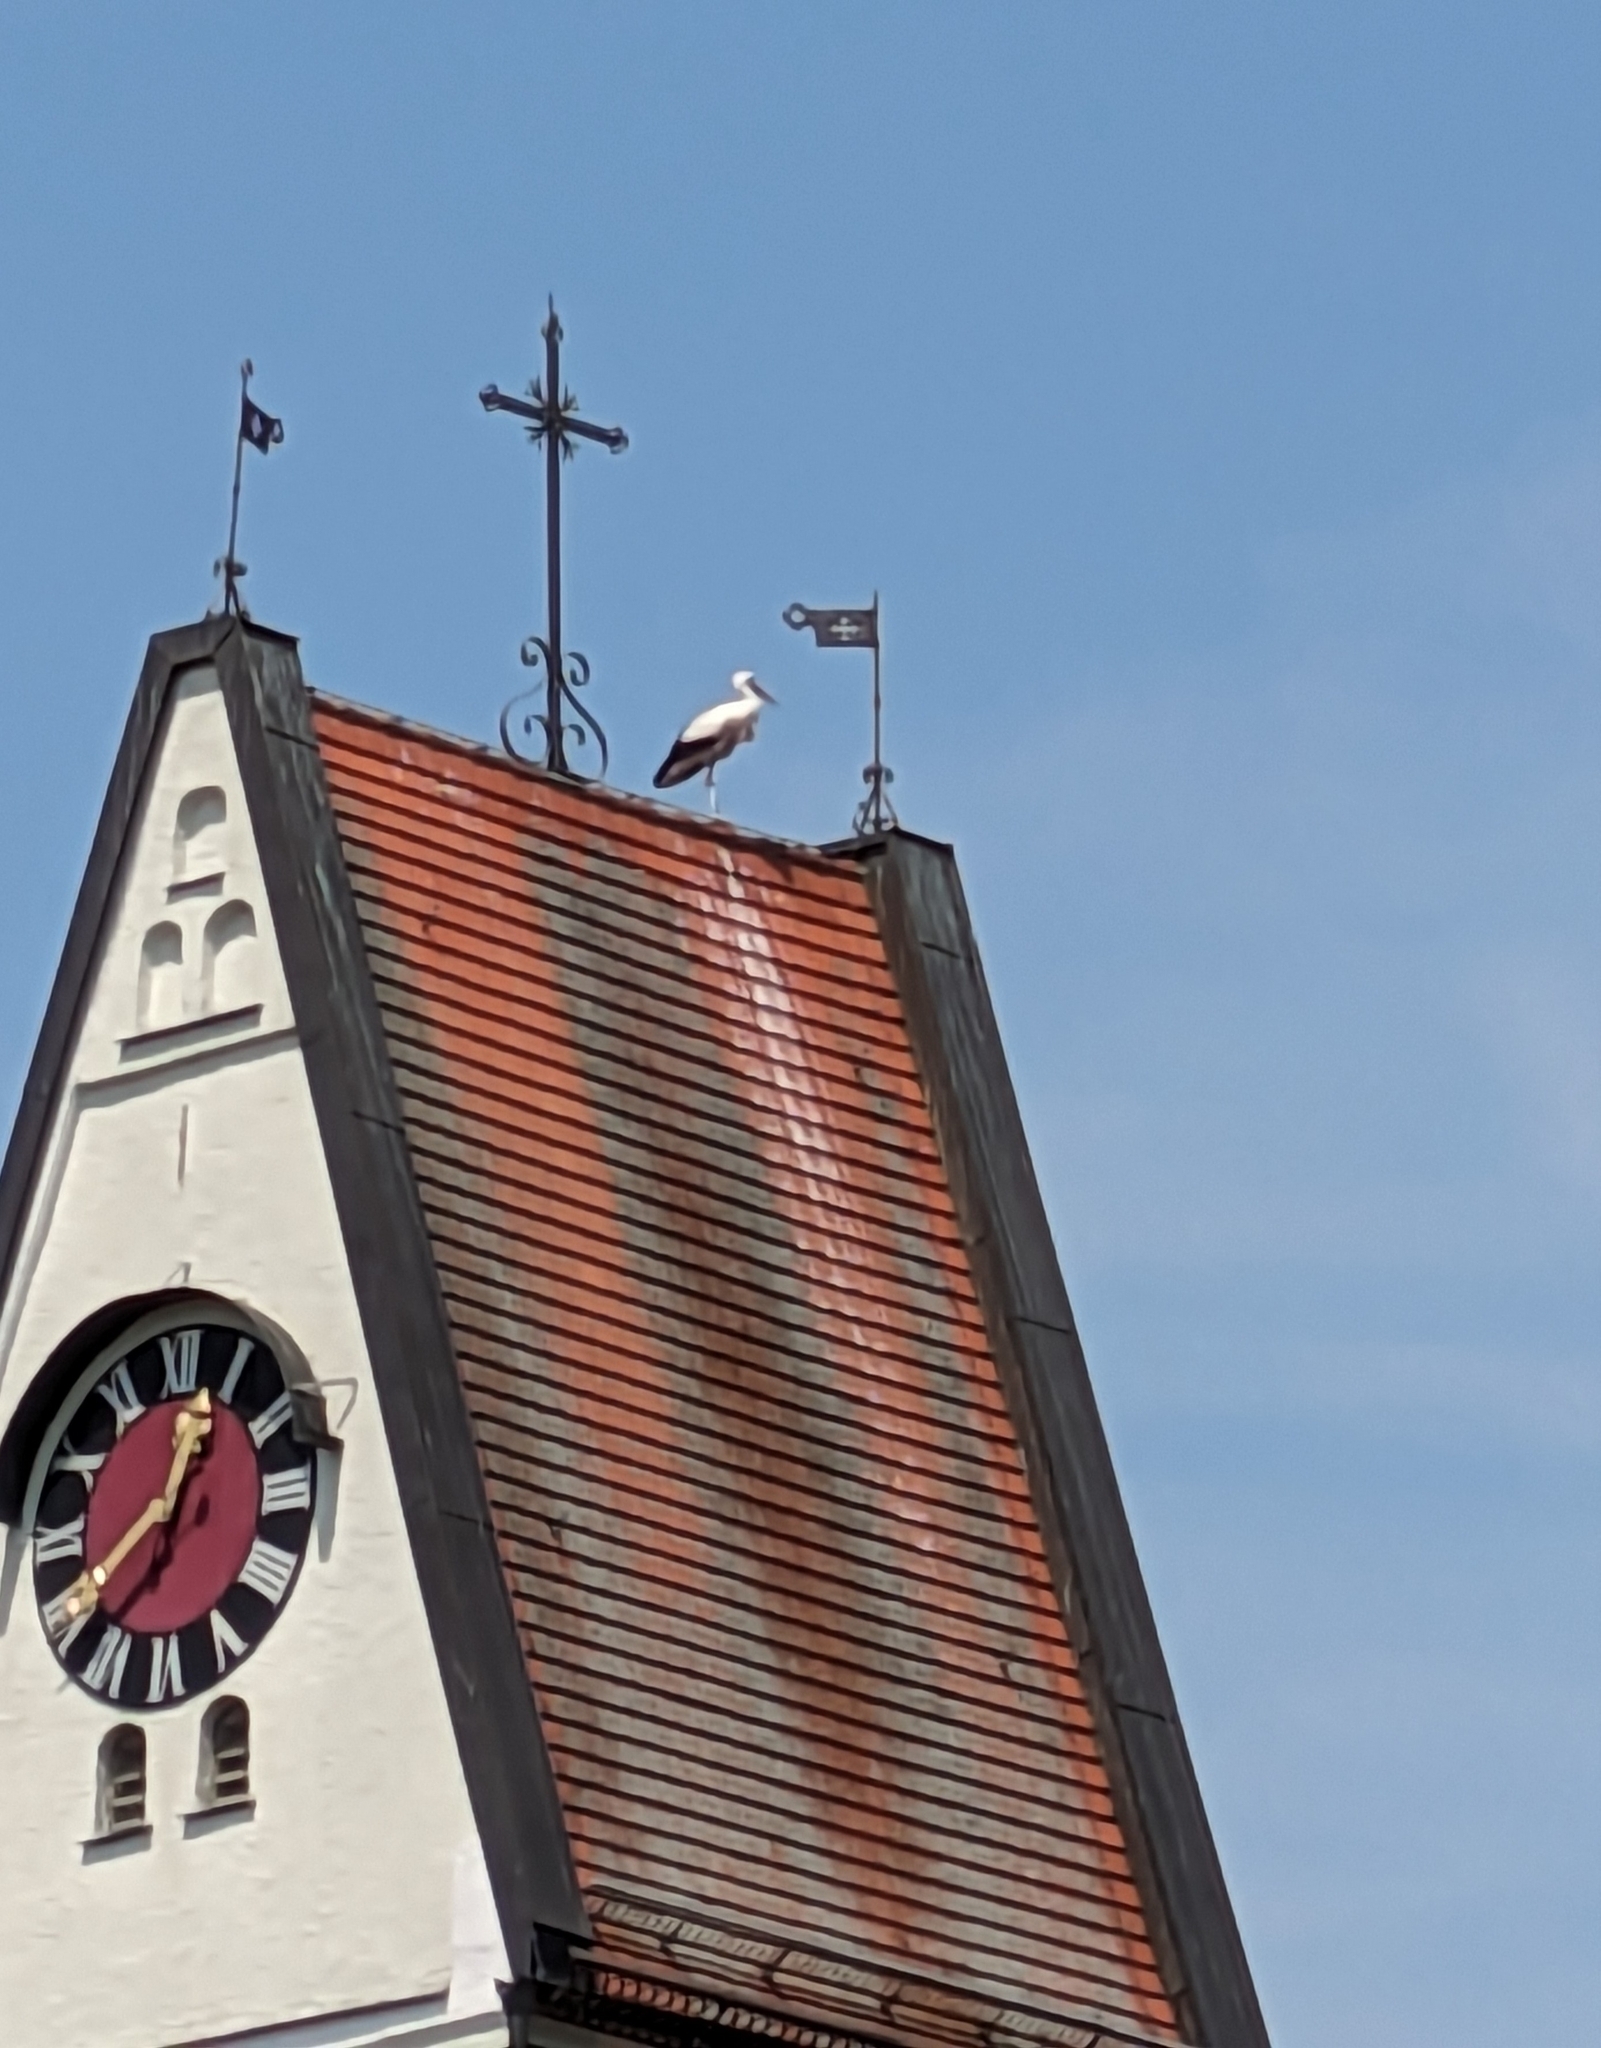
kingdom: Animalia
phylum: Chordata
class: Aves
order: Ciconiiformes
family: Ciconiidae
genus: Ciconia
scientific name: Ciconia ciconia
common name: White stork
